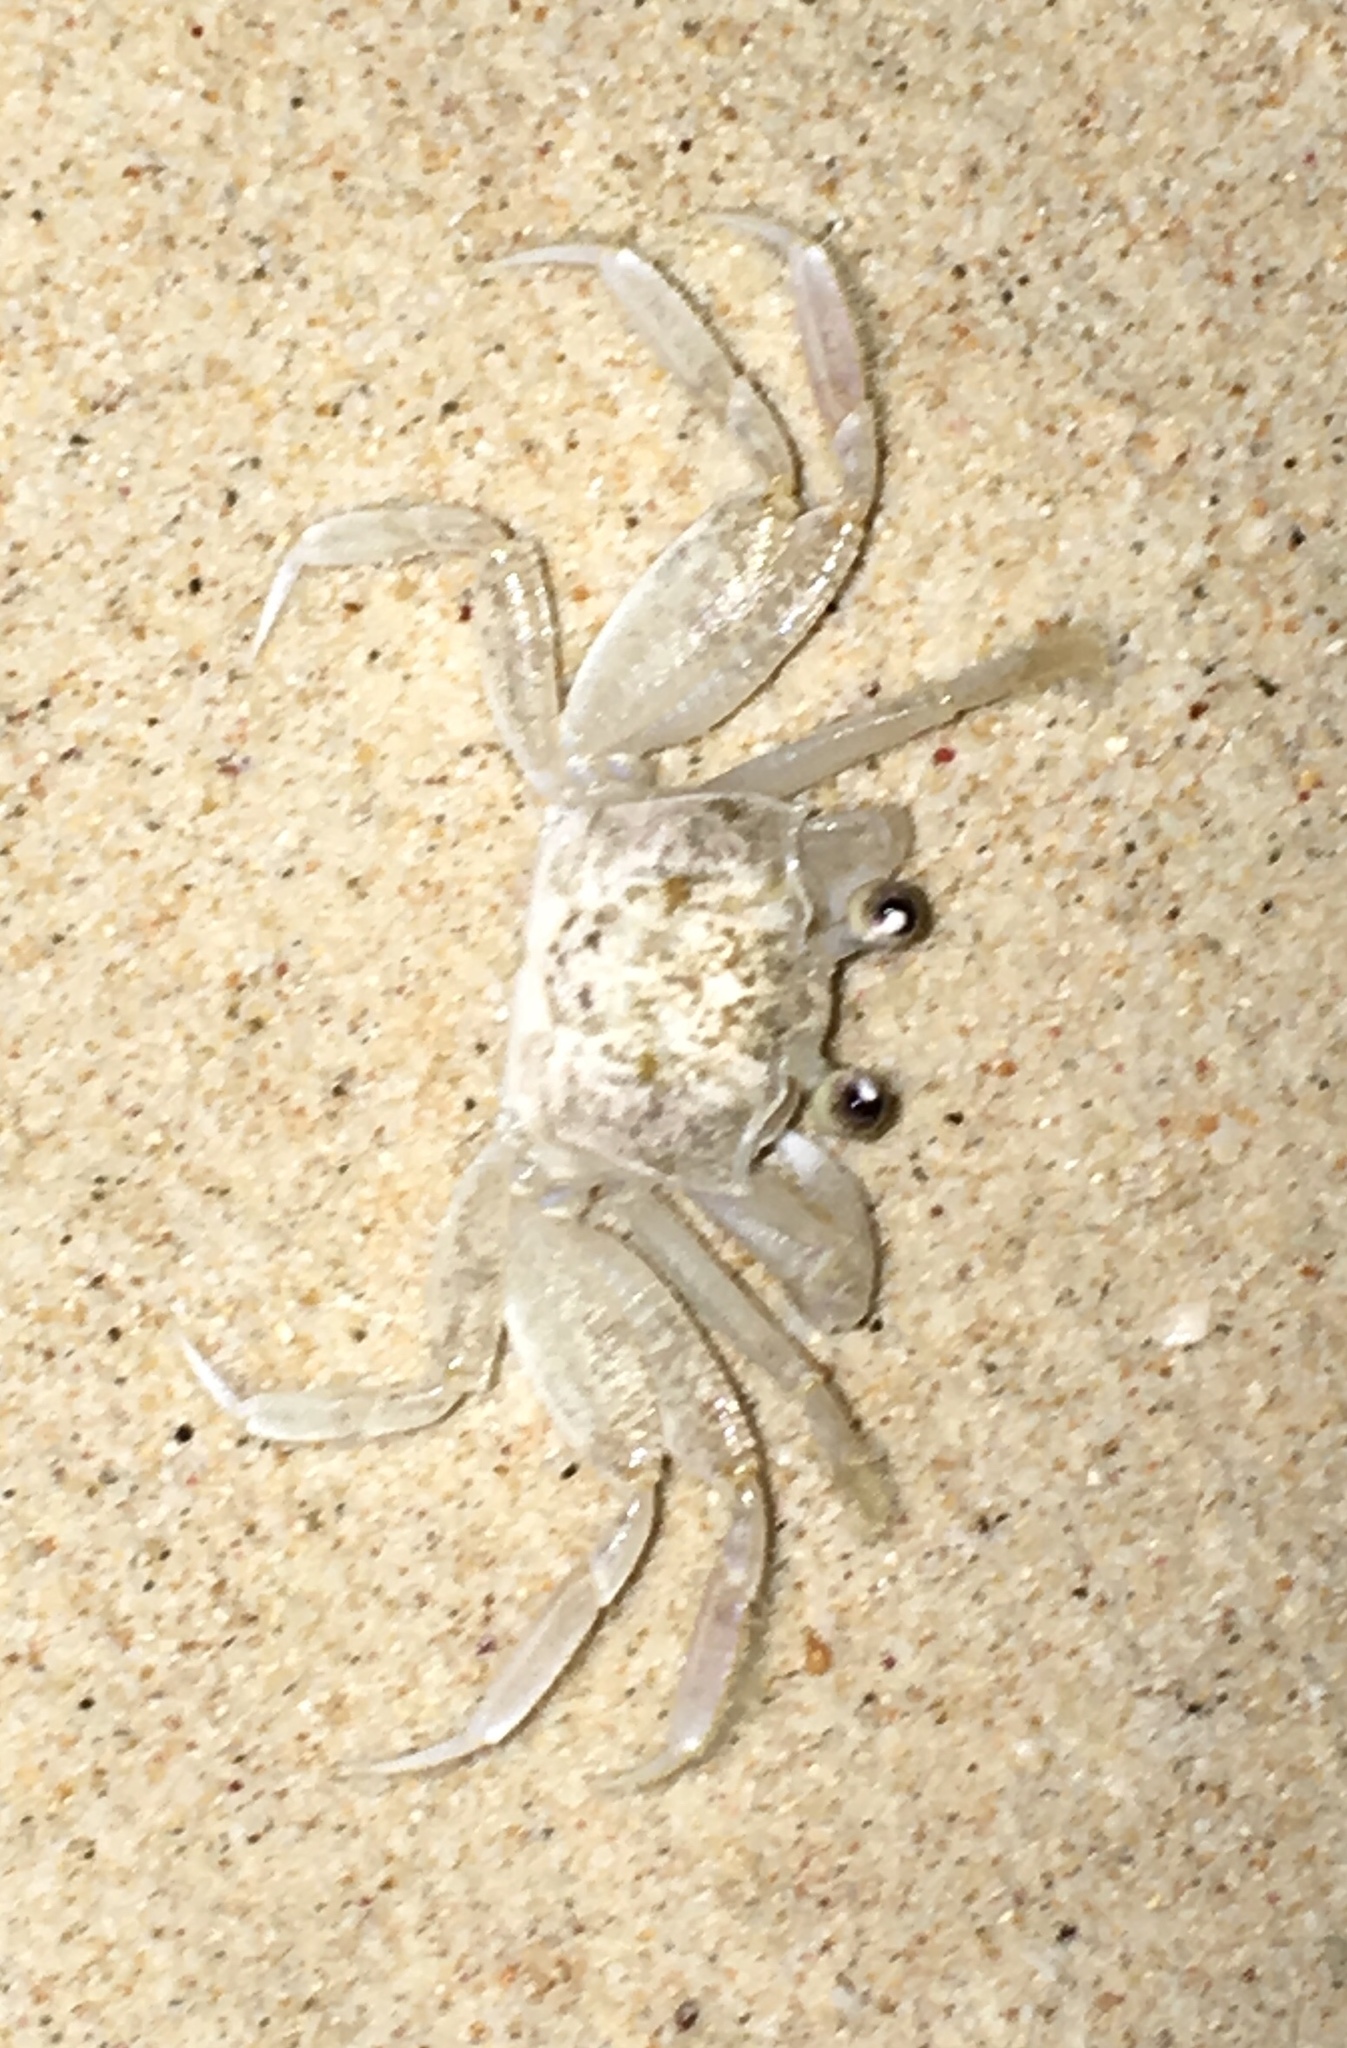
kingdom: Animalia
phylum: Arthropoda
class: Malacostraca
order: Decapoda
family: Ocypodidae
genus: Ocypode
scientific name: Ocypode quadrata
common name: Ghost crab
